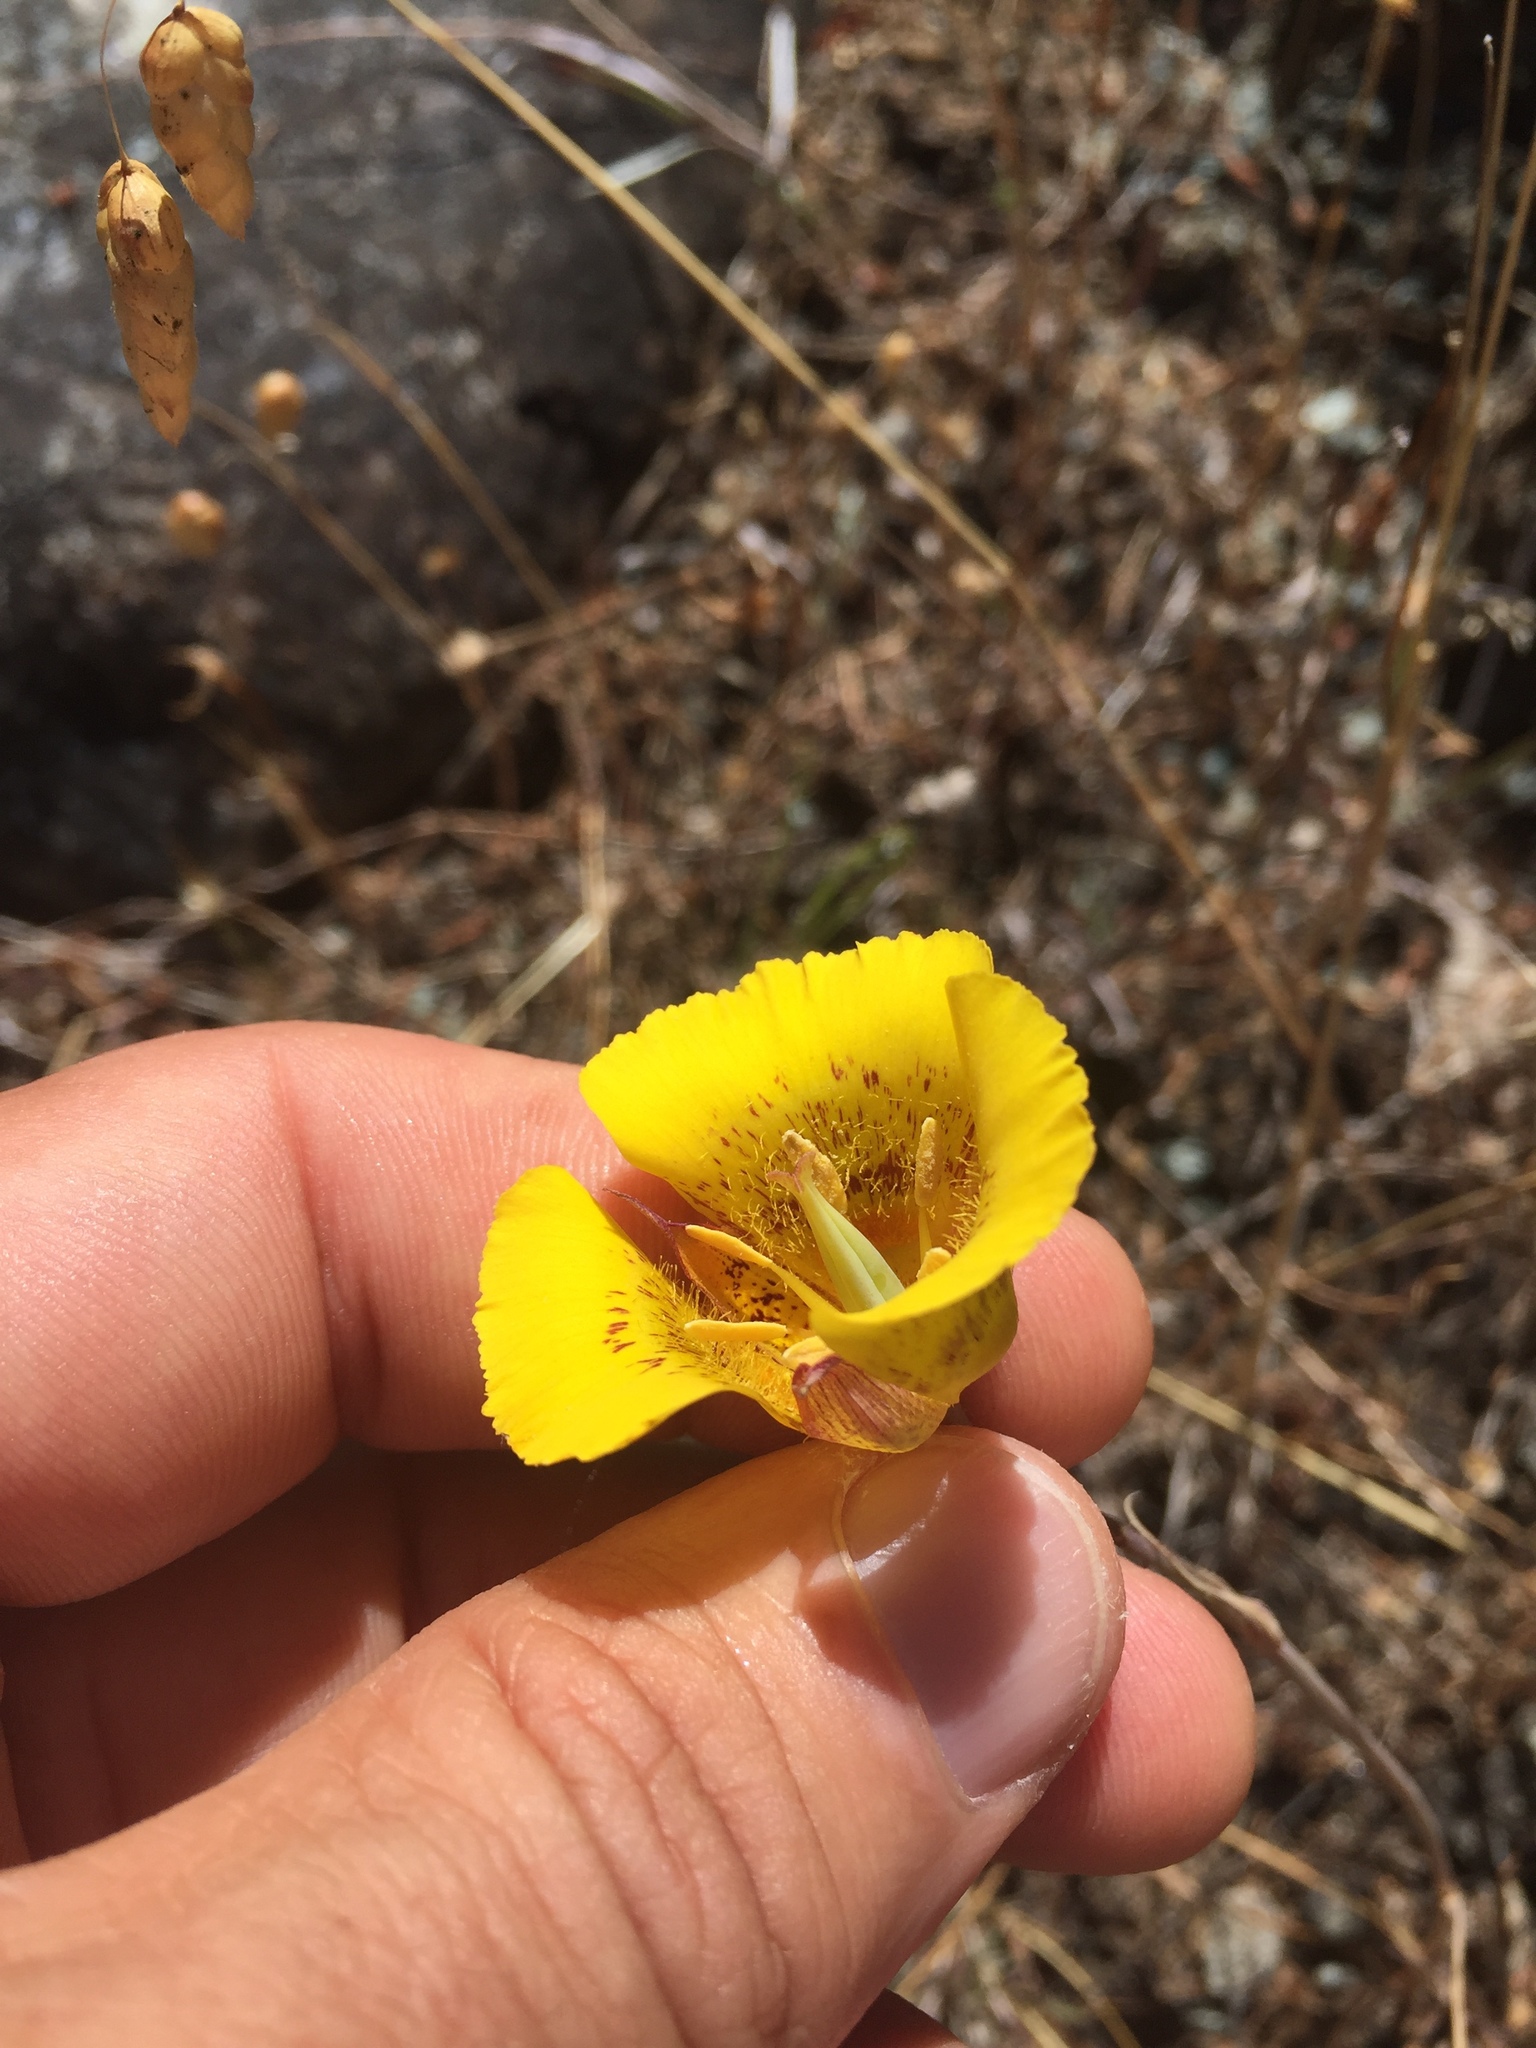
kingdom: Plantae
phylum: Tracheophyta
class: Liliopsida
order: Liliales
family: Liliaceae
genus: Calochortus
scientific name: Calochortus luteus
